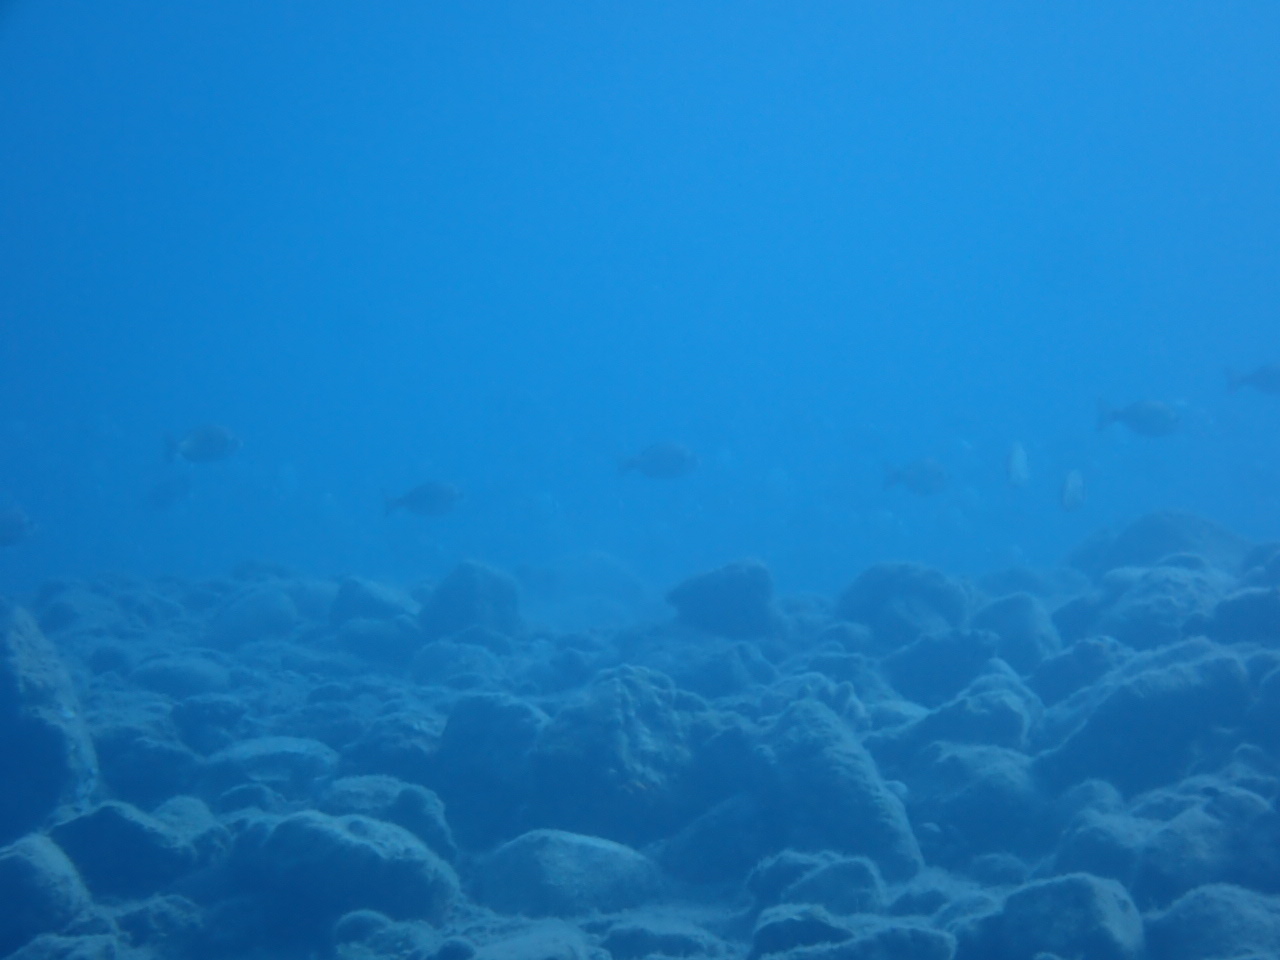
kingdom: Animalia
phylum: Chordata
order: Perciformes
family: Sparidae
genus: Spondyliosoma
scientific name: Spondyliosoma cantharus
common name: Black seabream
